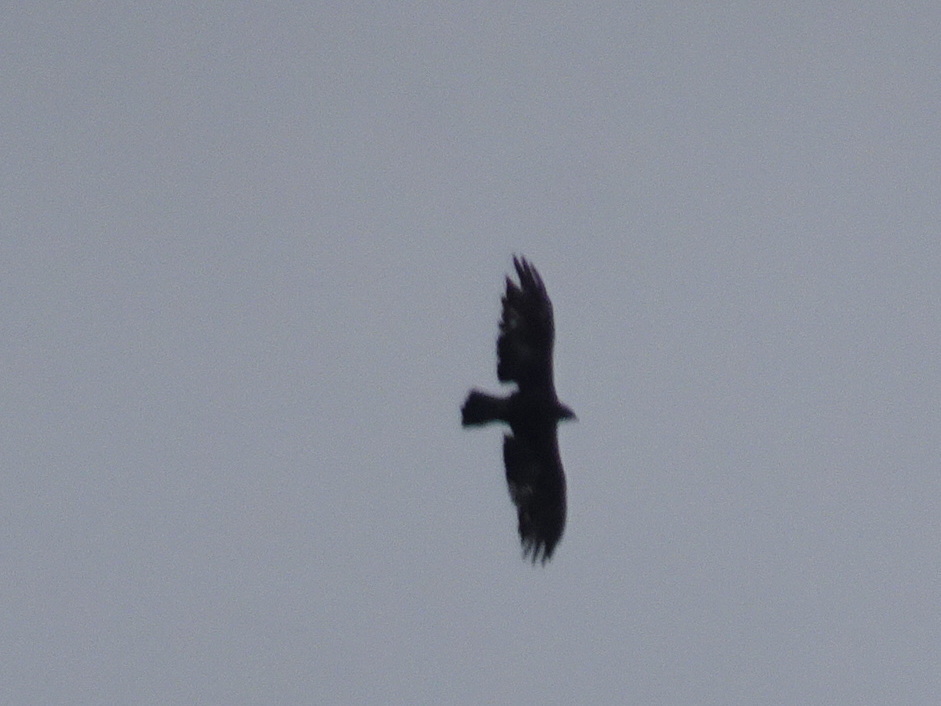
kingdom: Animalia
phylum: Chordata
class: Aves
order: Accipitriformes
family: Accipitridae
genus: Aquila
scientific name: Aquila chrysaetos
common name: Golden eagle
